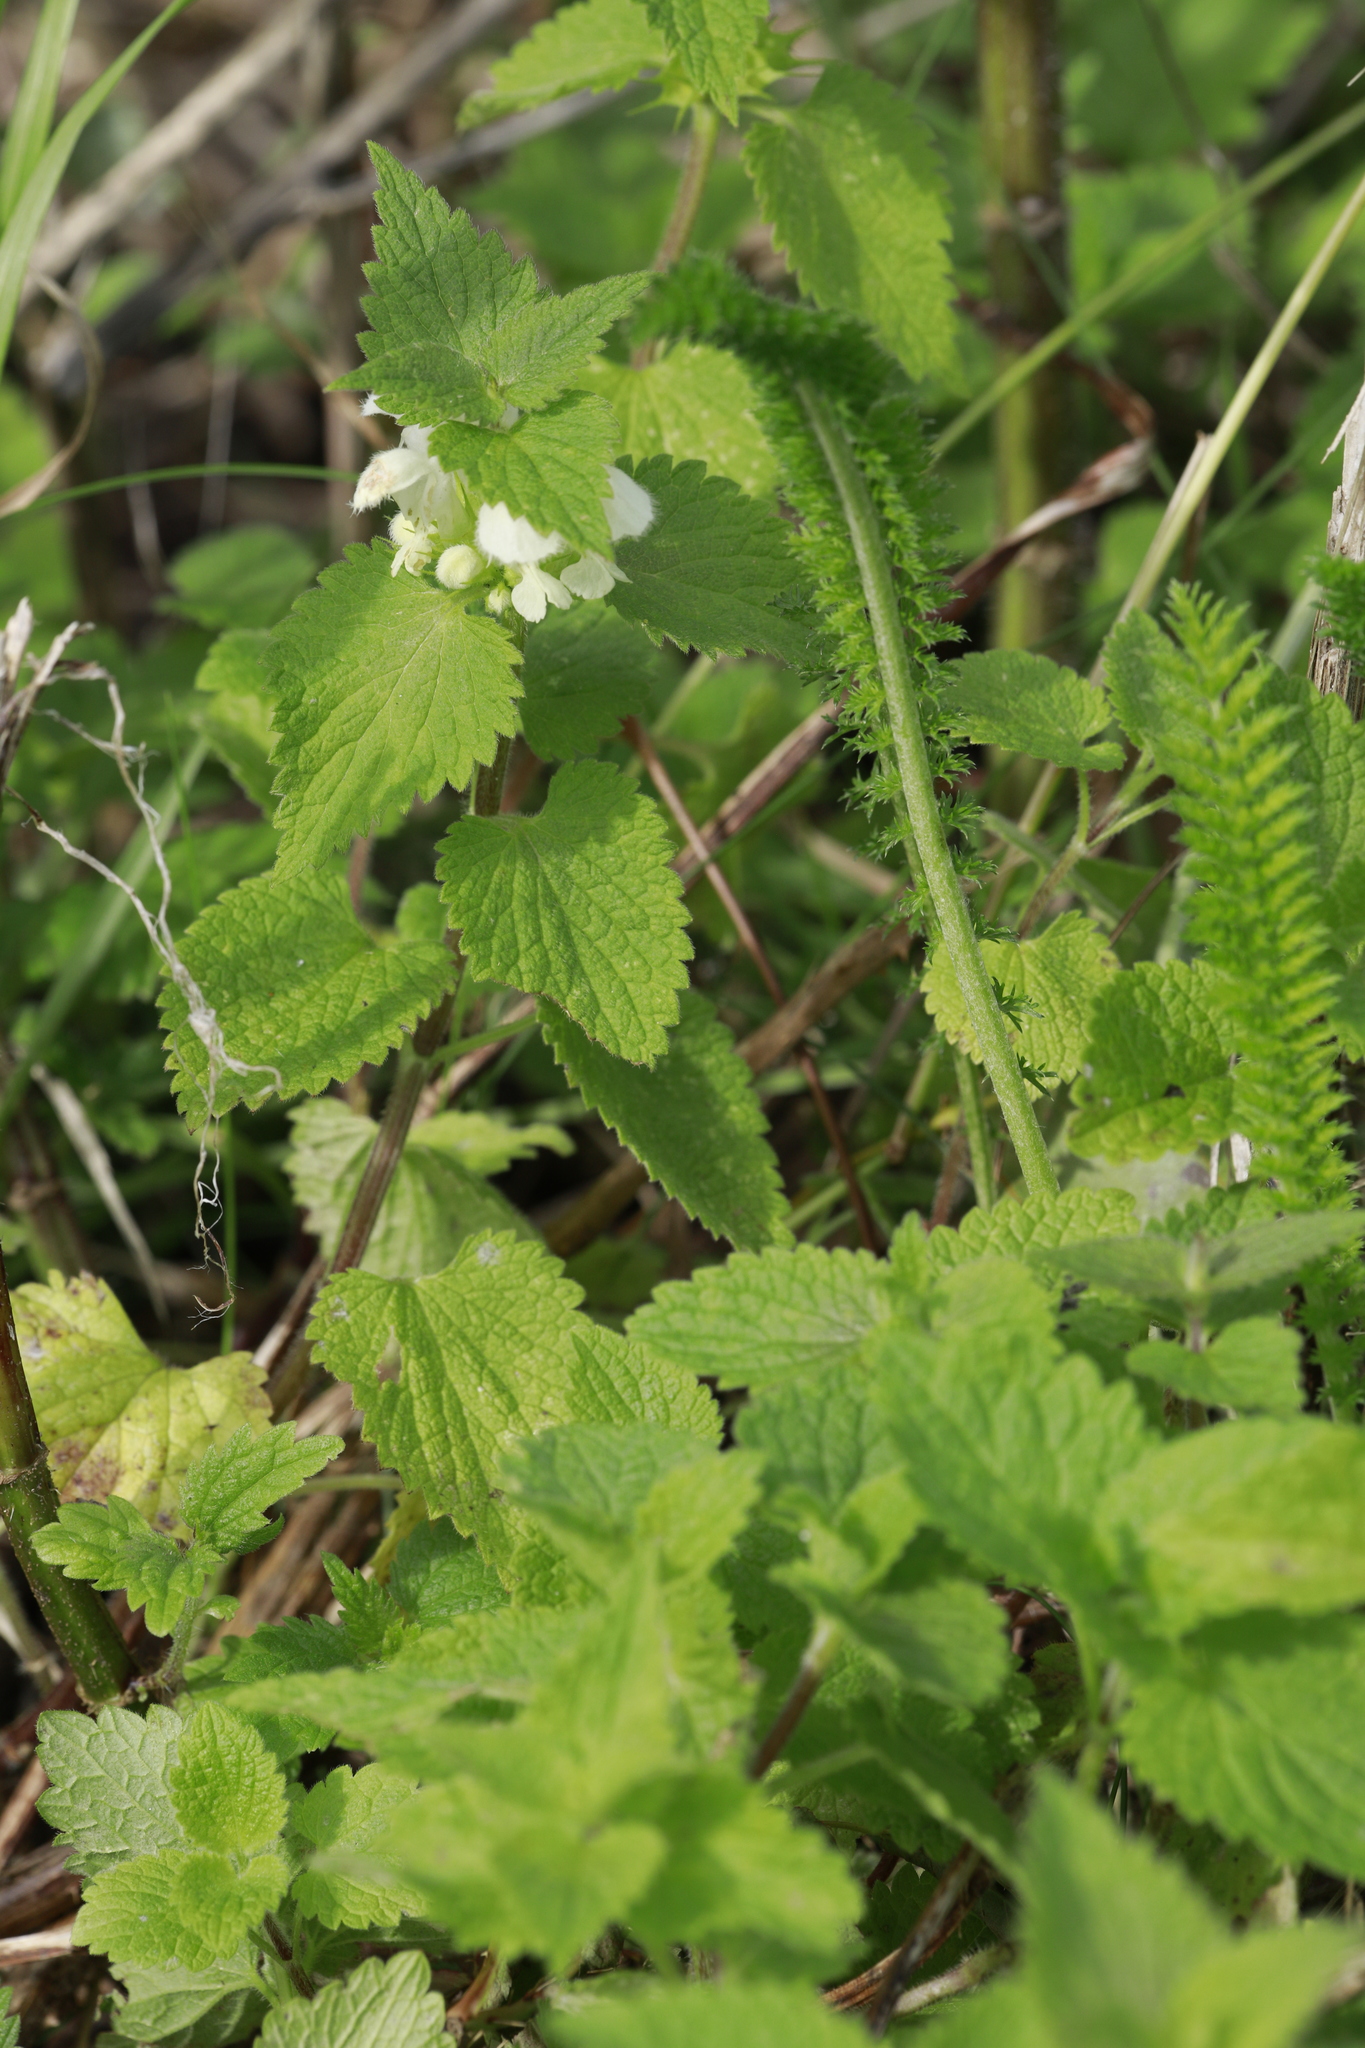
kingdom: Plantae
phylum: Tracheophyta
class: Magnoliopsida
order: Lamiales
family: Lamiaceae
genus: Lamium
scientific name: Lamium album
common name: White dead-nettle
